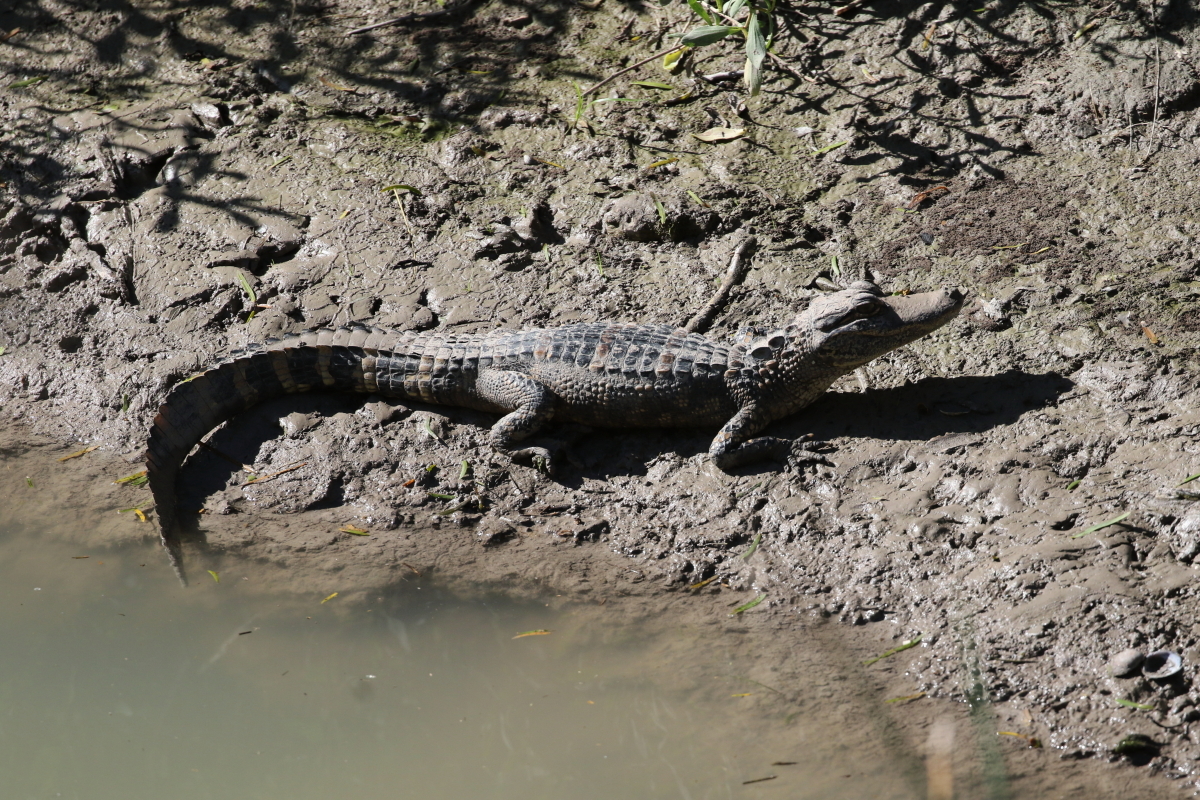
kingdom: Animalia
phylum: Chordata
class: Crocodylia
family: Alligatoridae
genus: Alligator
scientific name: Alligator mississippiensis
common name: American alligator
